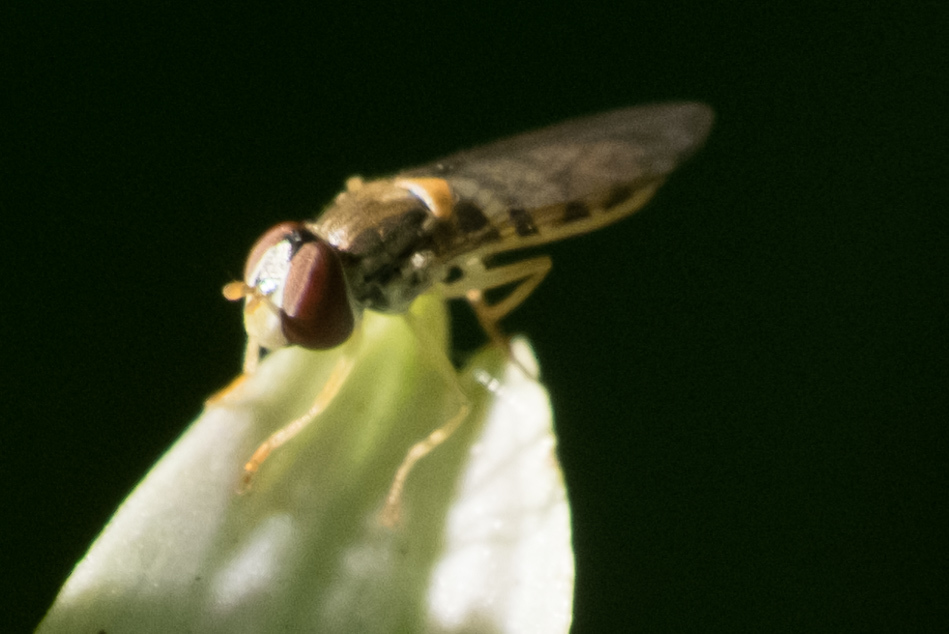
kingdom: Animalia
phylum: Arthropoda
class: Insecta
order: Diptera
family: Syrphidae
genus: Toxomerus
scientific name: Toxomerus marginatus
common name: Syrphid fly
